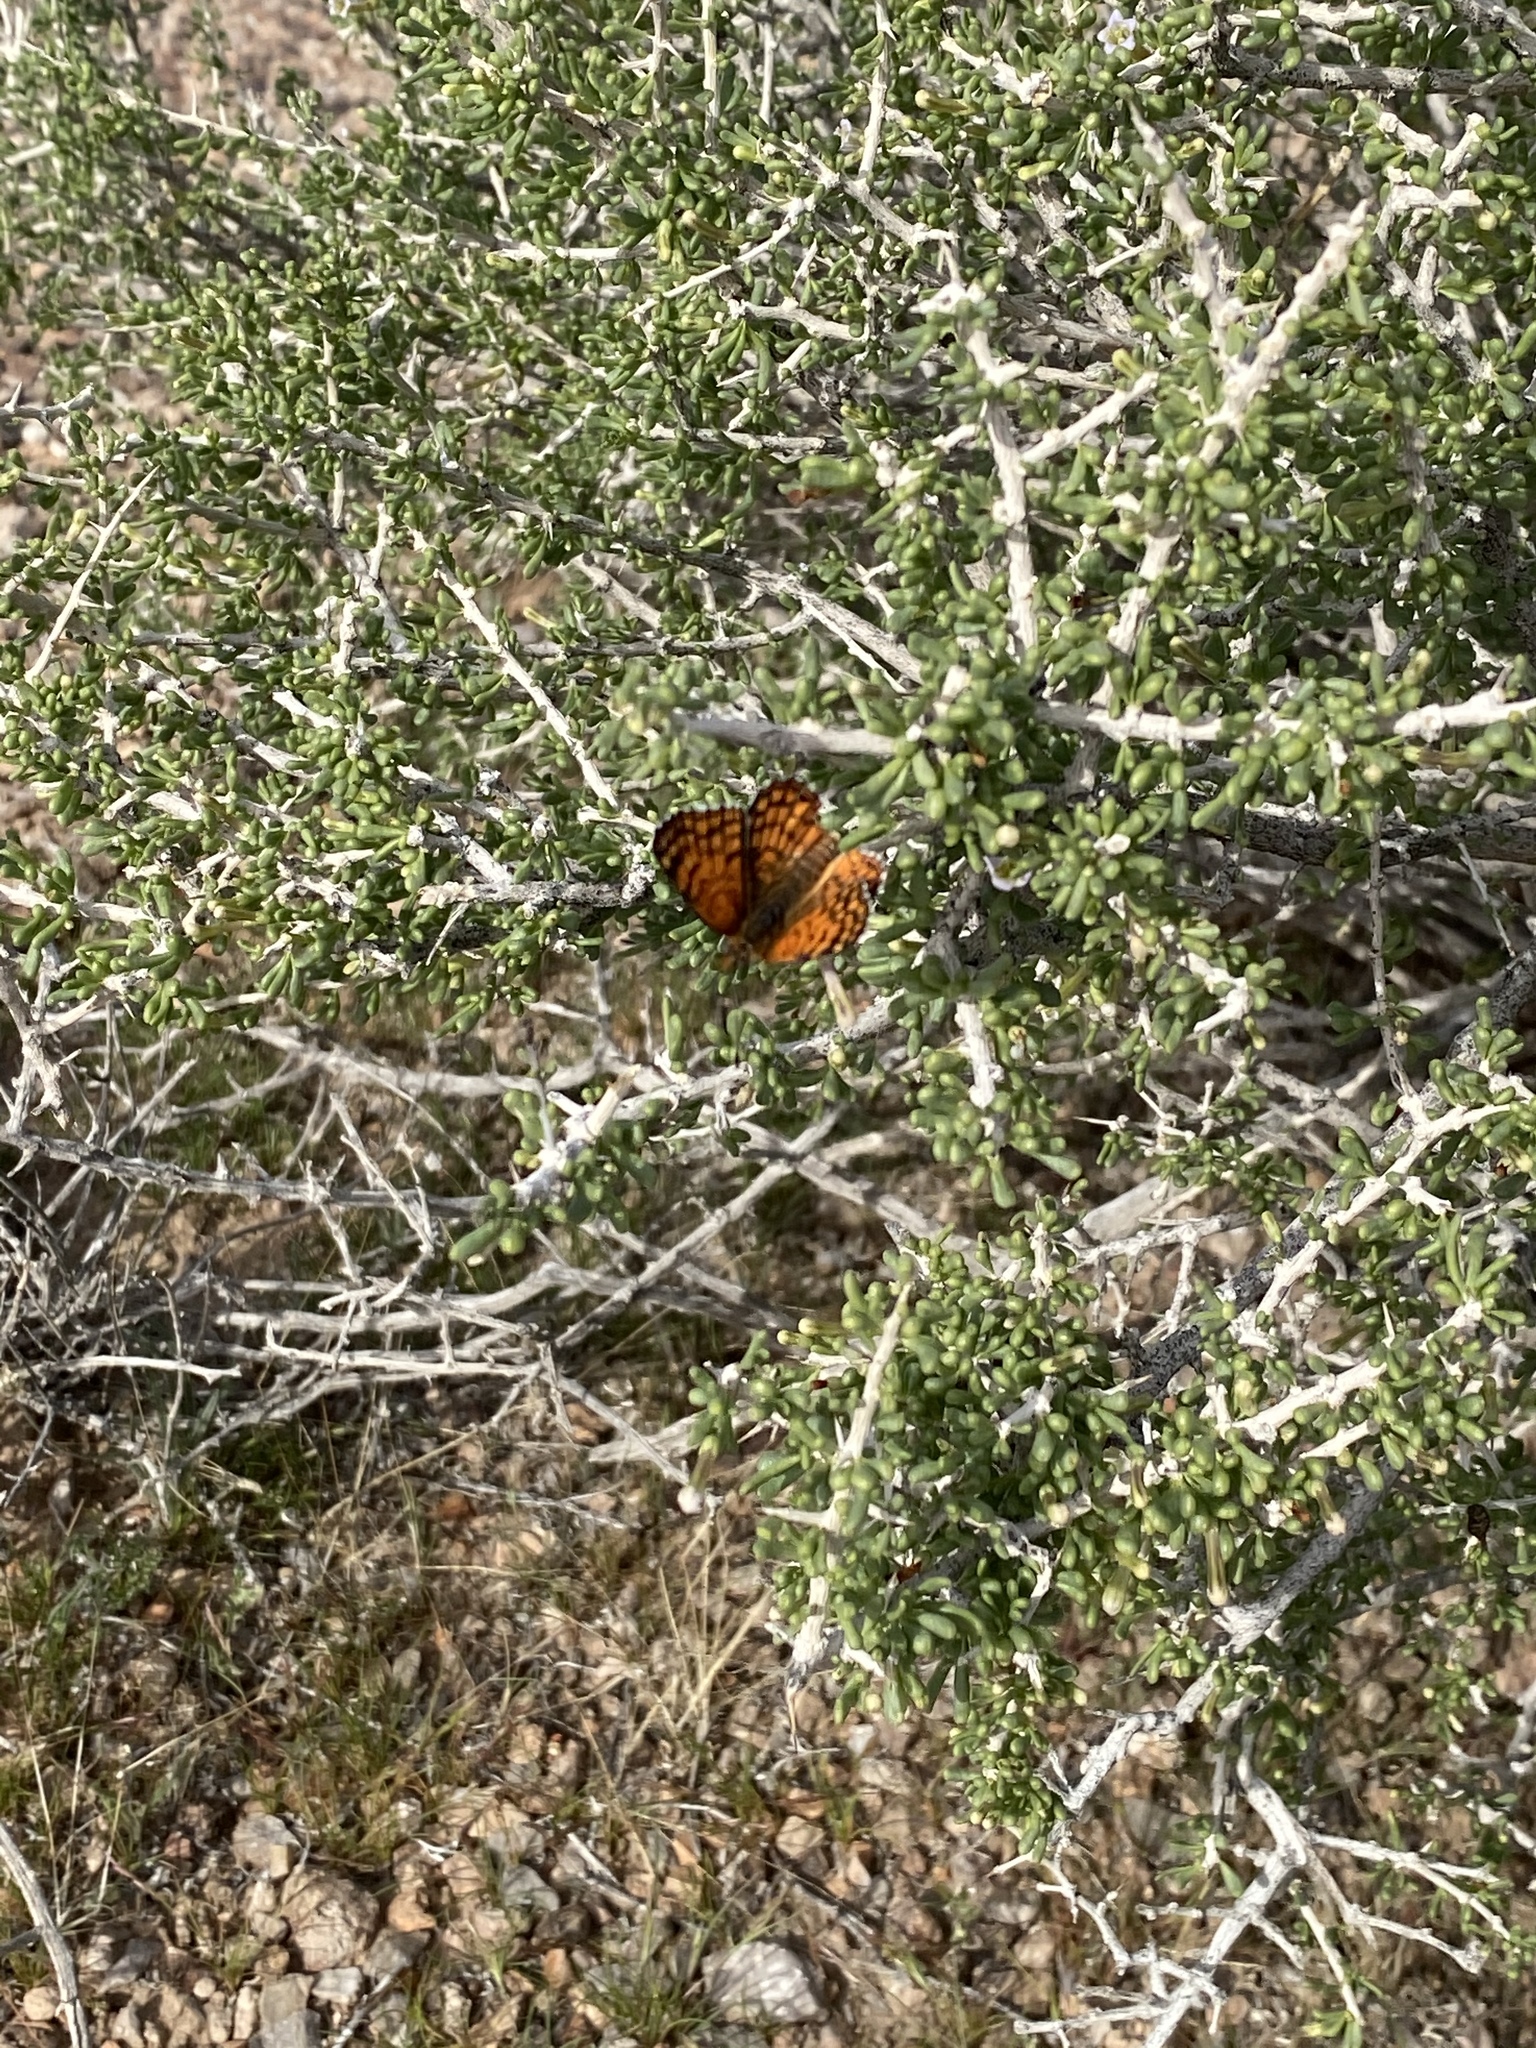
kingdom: Animalia
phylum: Arthropoda
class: Insecta
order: Lepidoptera
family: Nymphalidae
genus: Chlosyne
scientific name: Chlosyne acastus
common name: Sagebrush checkerspot
